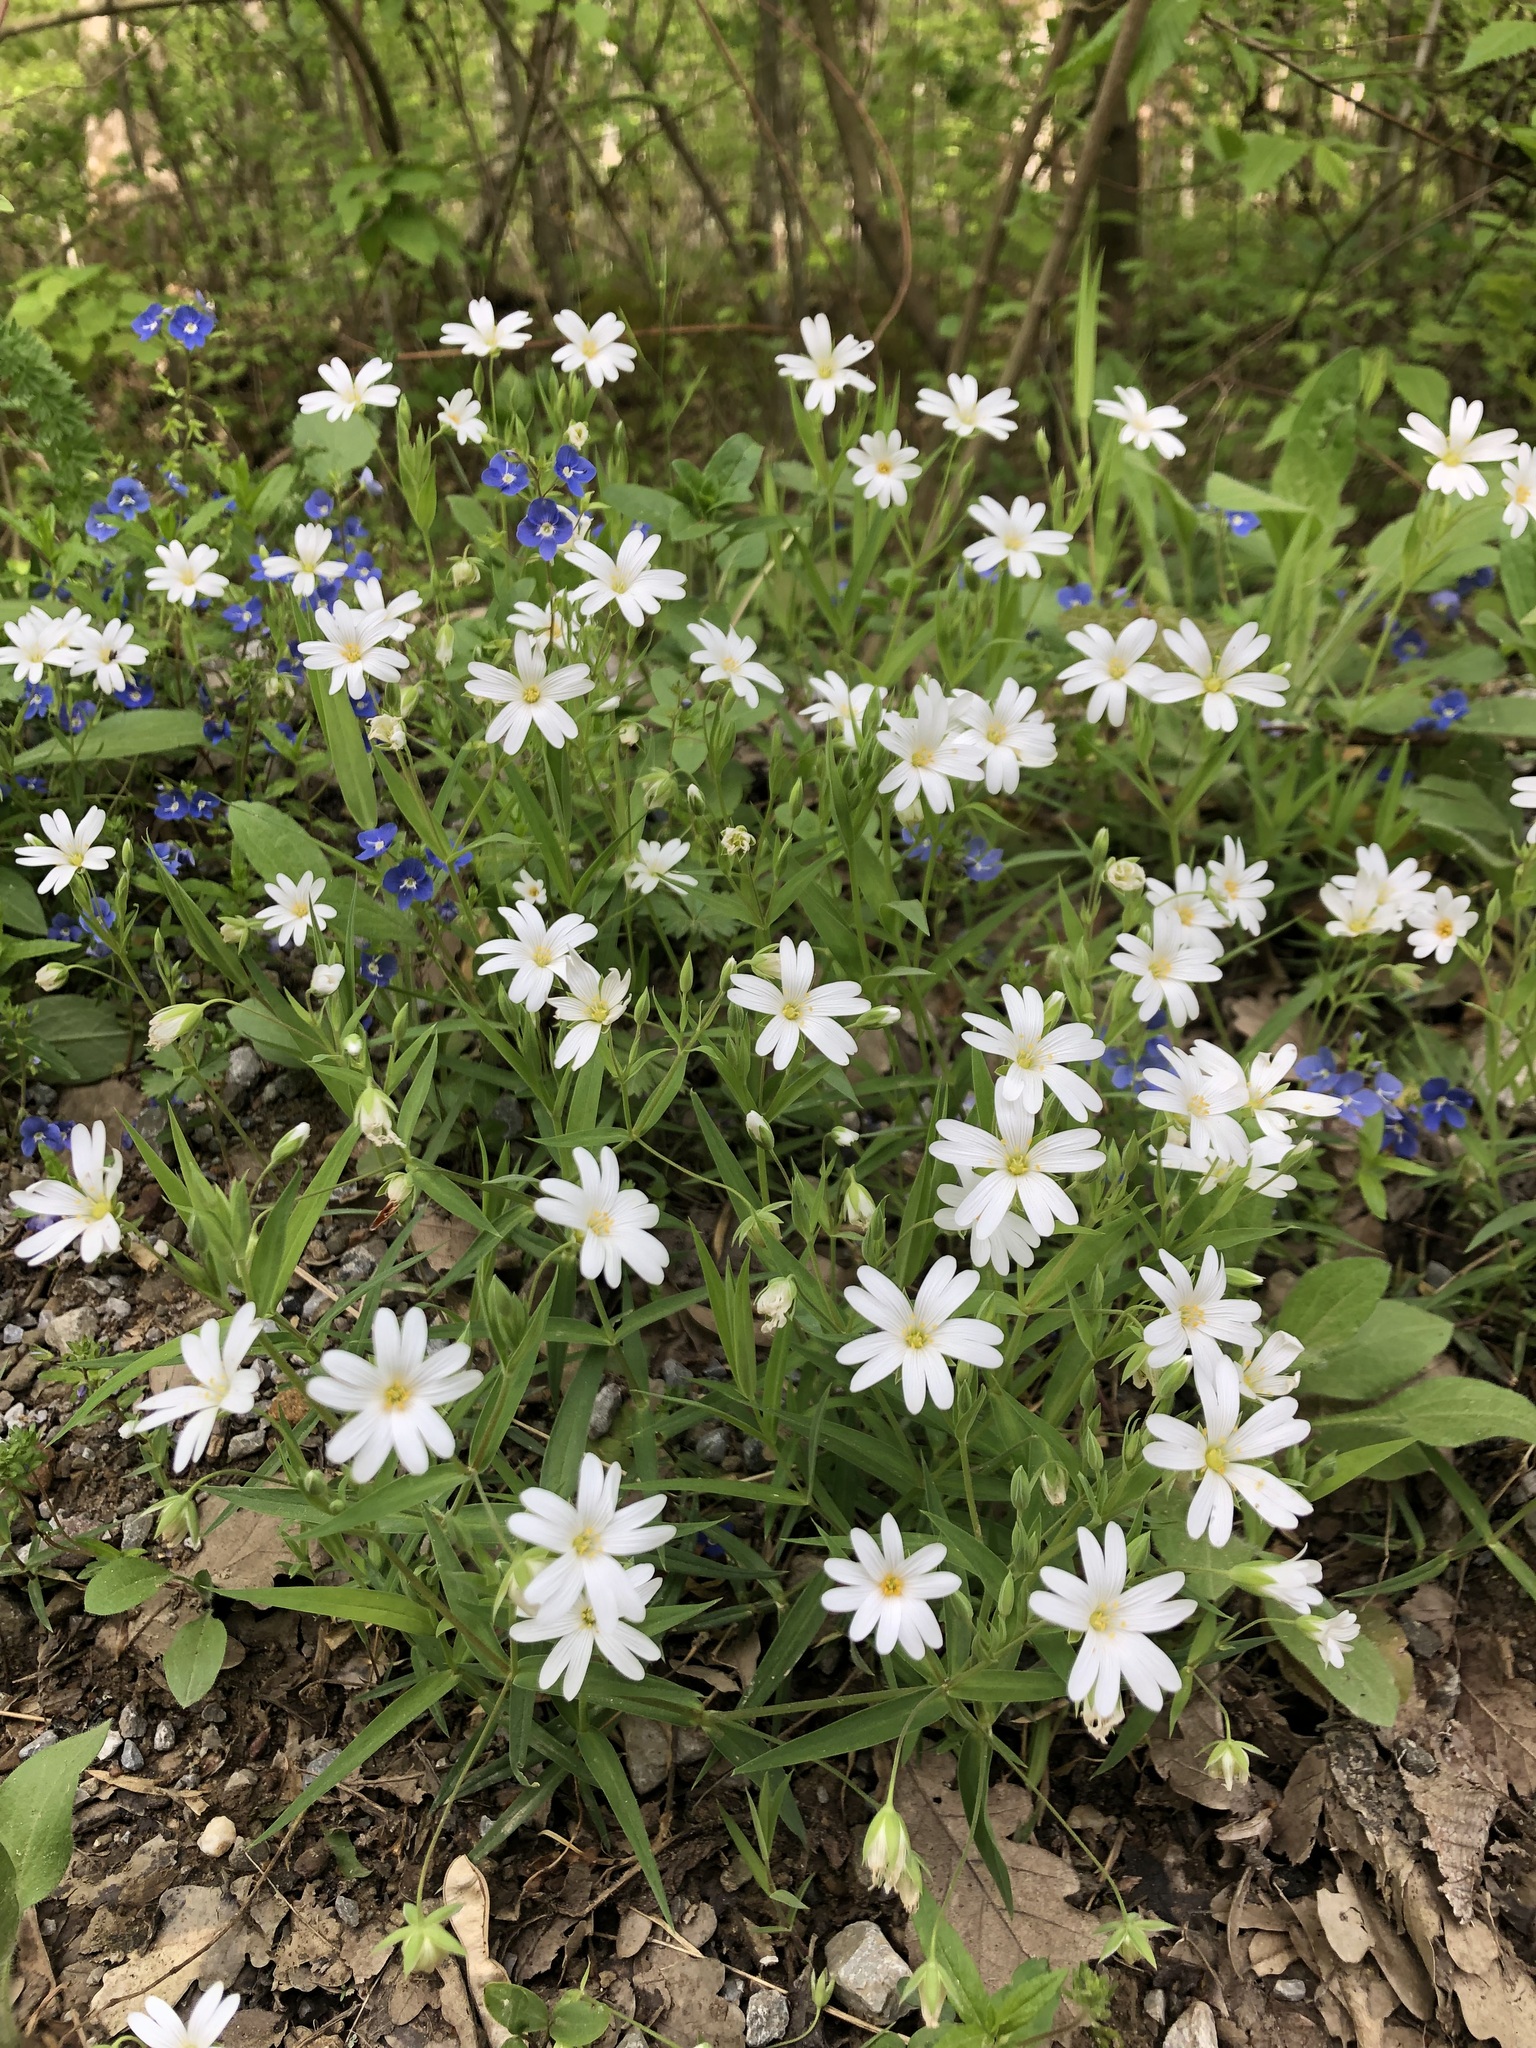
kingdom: Plantae
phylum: Tracheophyta
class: Magnoliopsida
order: Caryophyllales
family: Caryophyllaceae
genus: Rabelera
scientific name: Rabelera holostea
